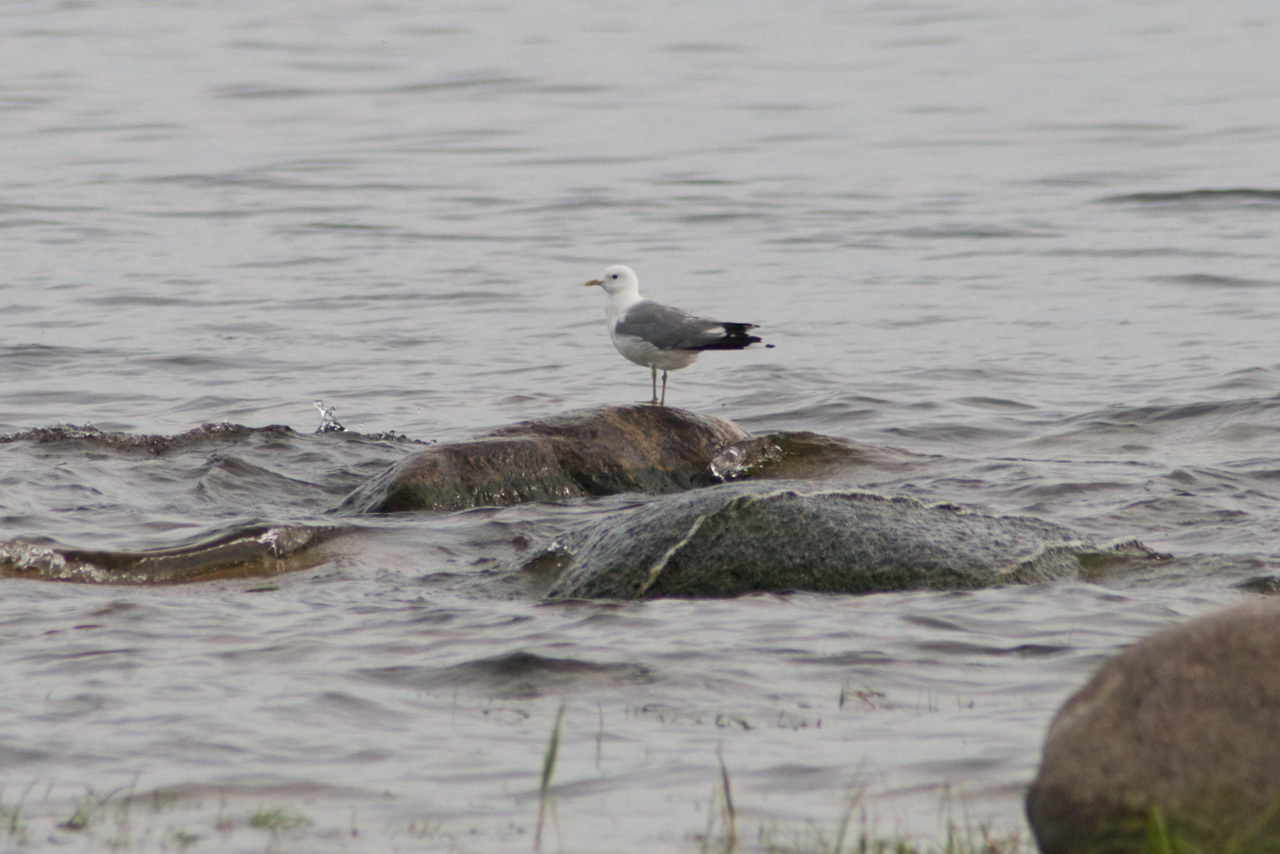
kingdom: Animalia
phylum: Chordata
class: Aves
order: Charadriiformes
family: Laridae
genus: Larus
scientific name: Larus canus
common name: Mew gull
